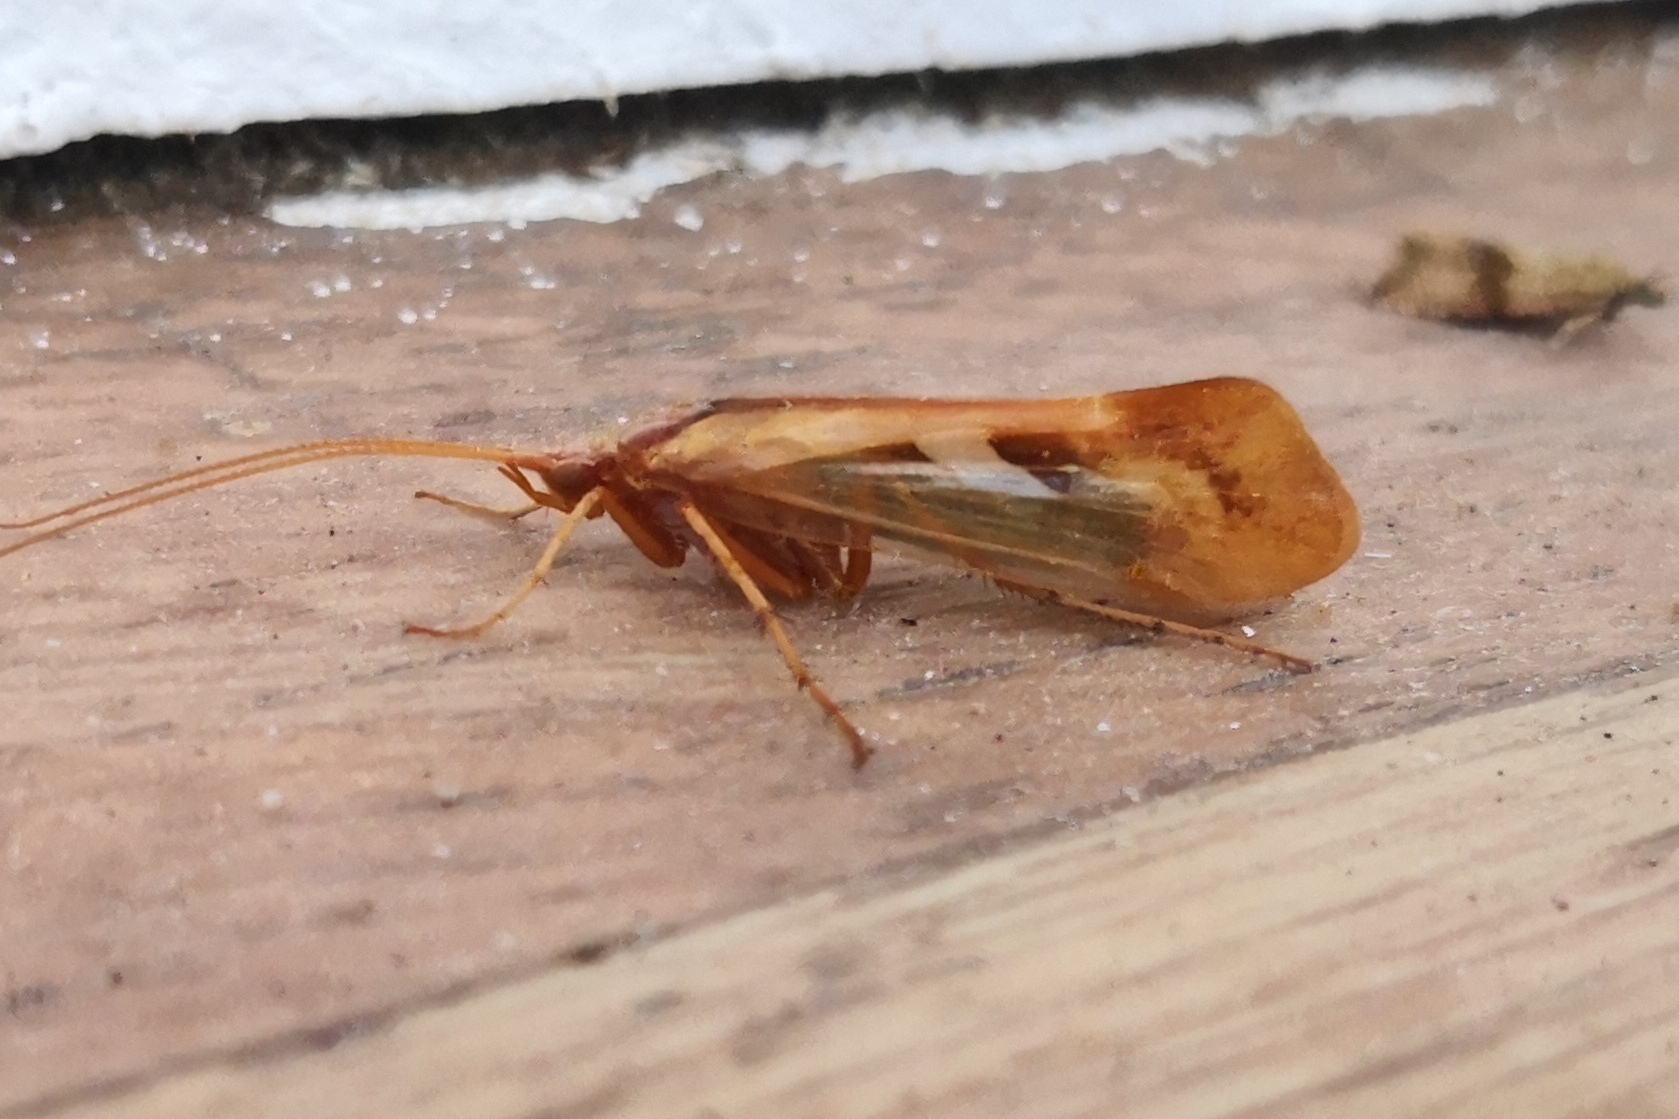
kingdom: Animalia
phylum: Arthropoda
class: Insecta
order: Trichoptera
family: Limnephilidae
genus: Limnephilus
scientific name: Limnephilus rhombicus
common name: Diamond northern caddisfly
